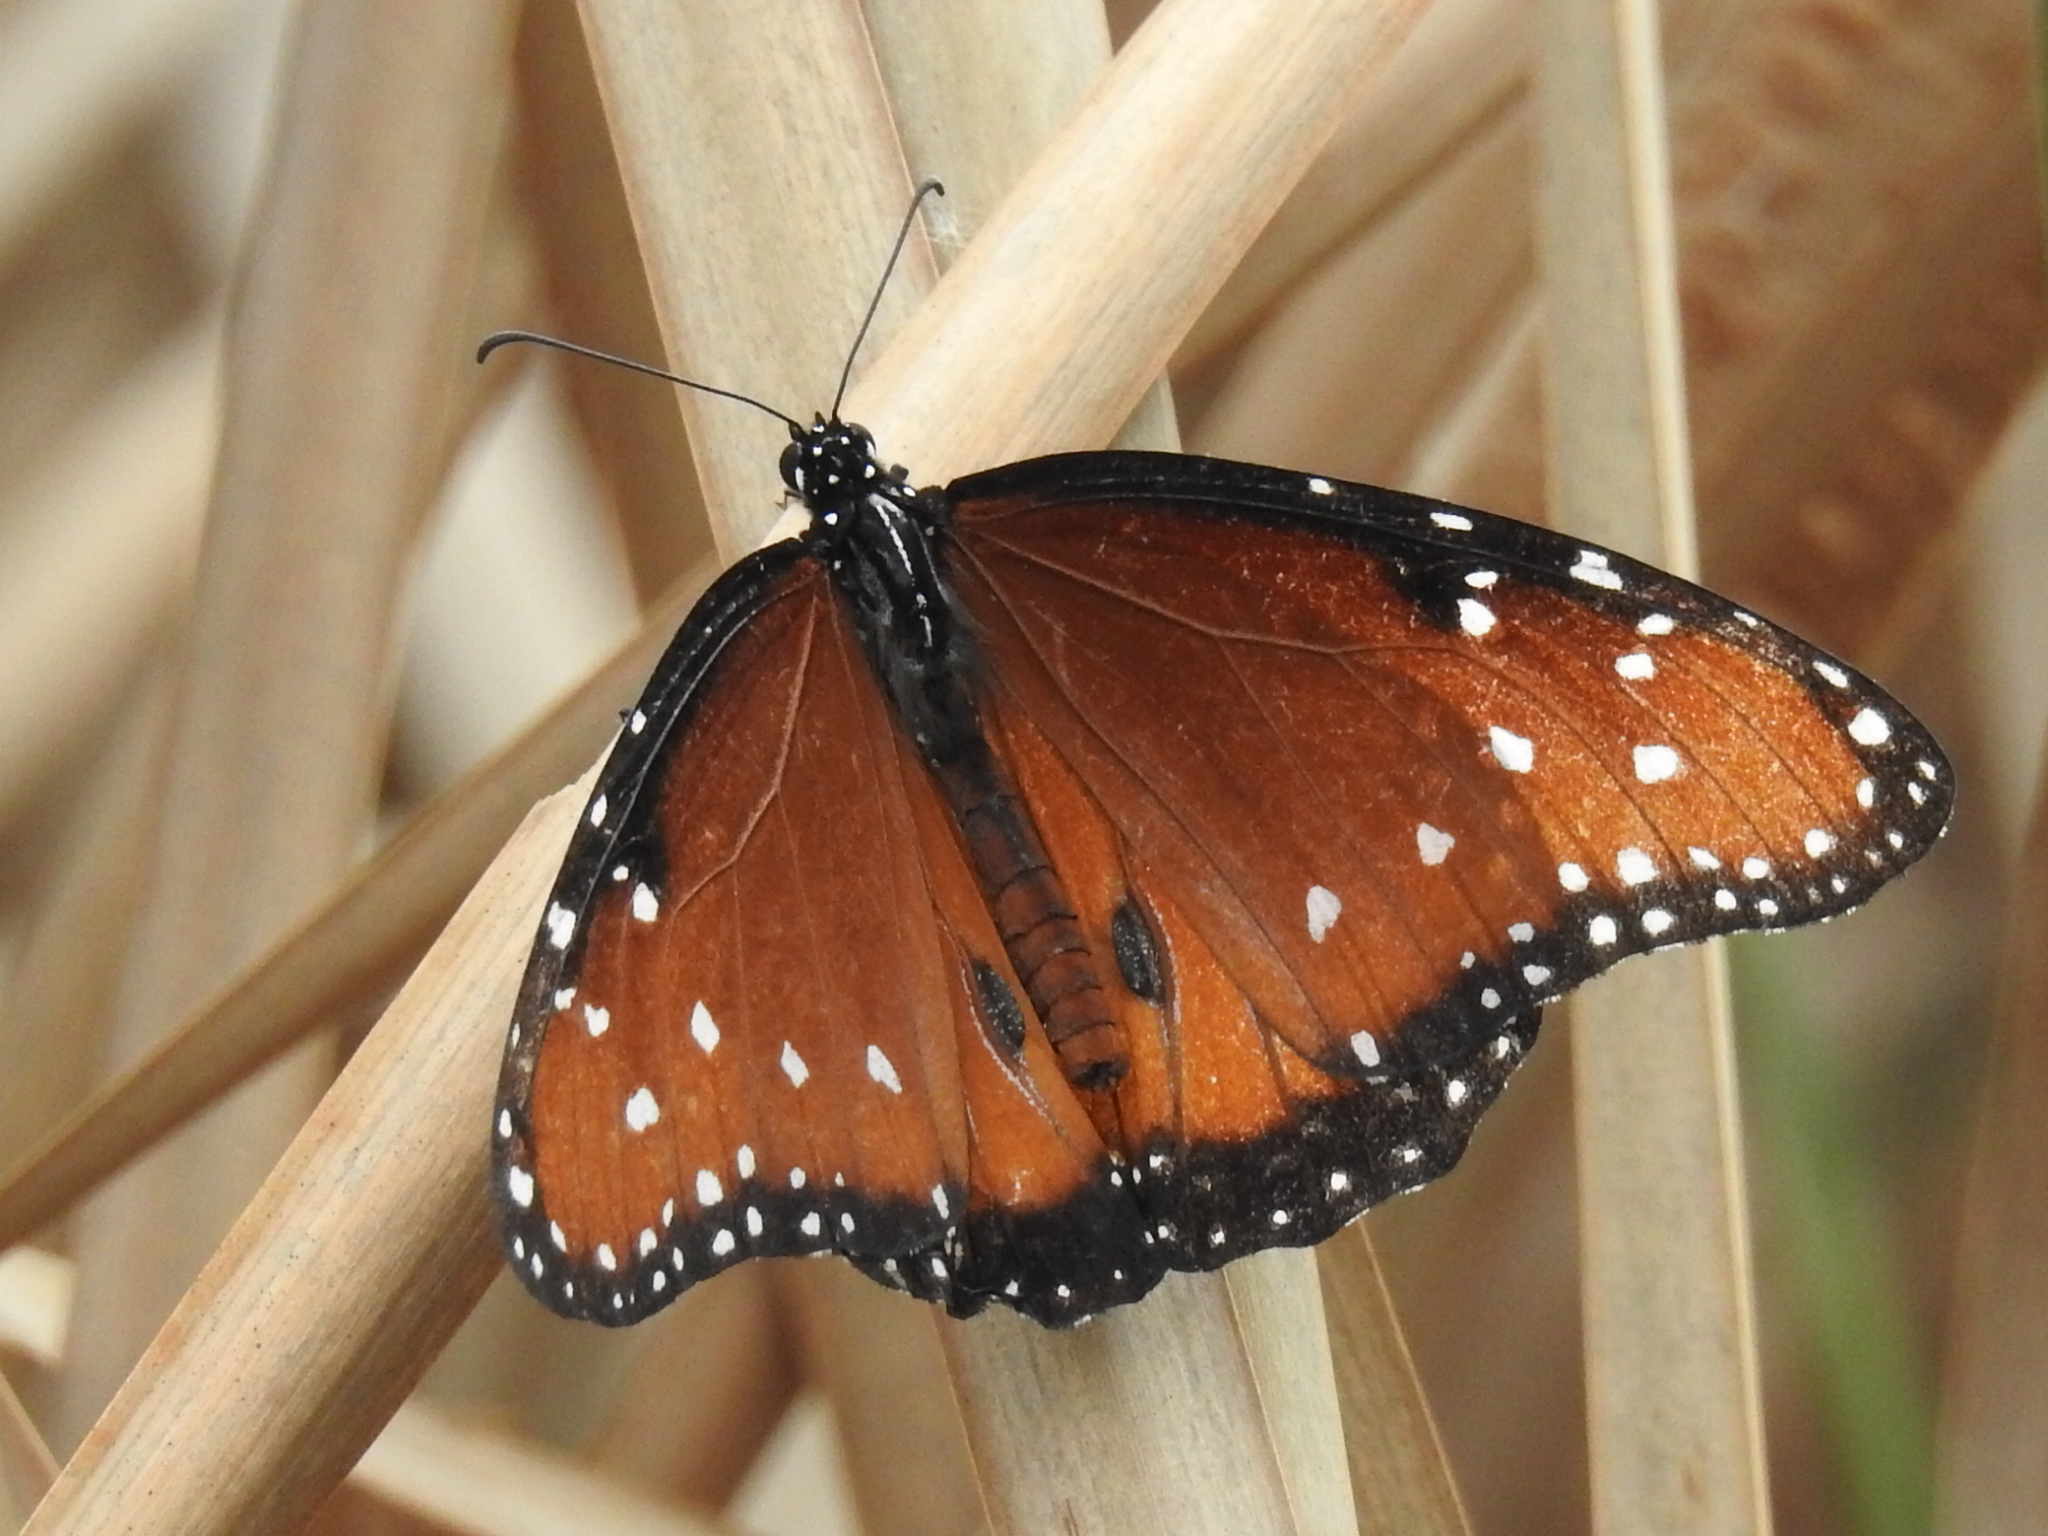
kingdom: Animalia
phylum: Arthropoda
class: Insecta
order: Lepidoptera
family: Nymphalidae
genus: Danaus
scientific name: Danaus gilippus
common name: Queen
